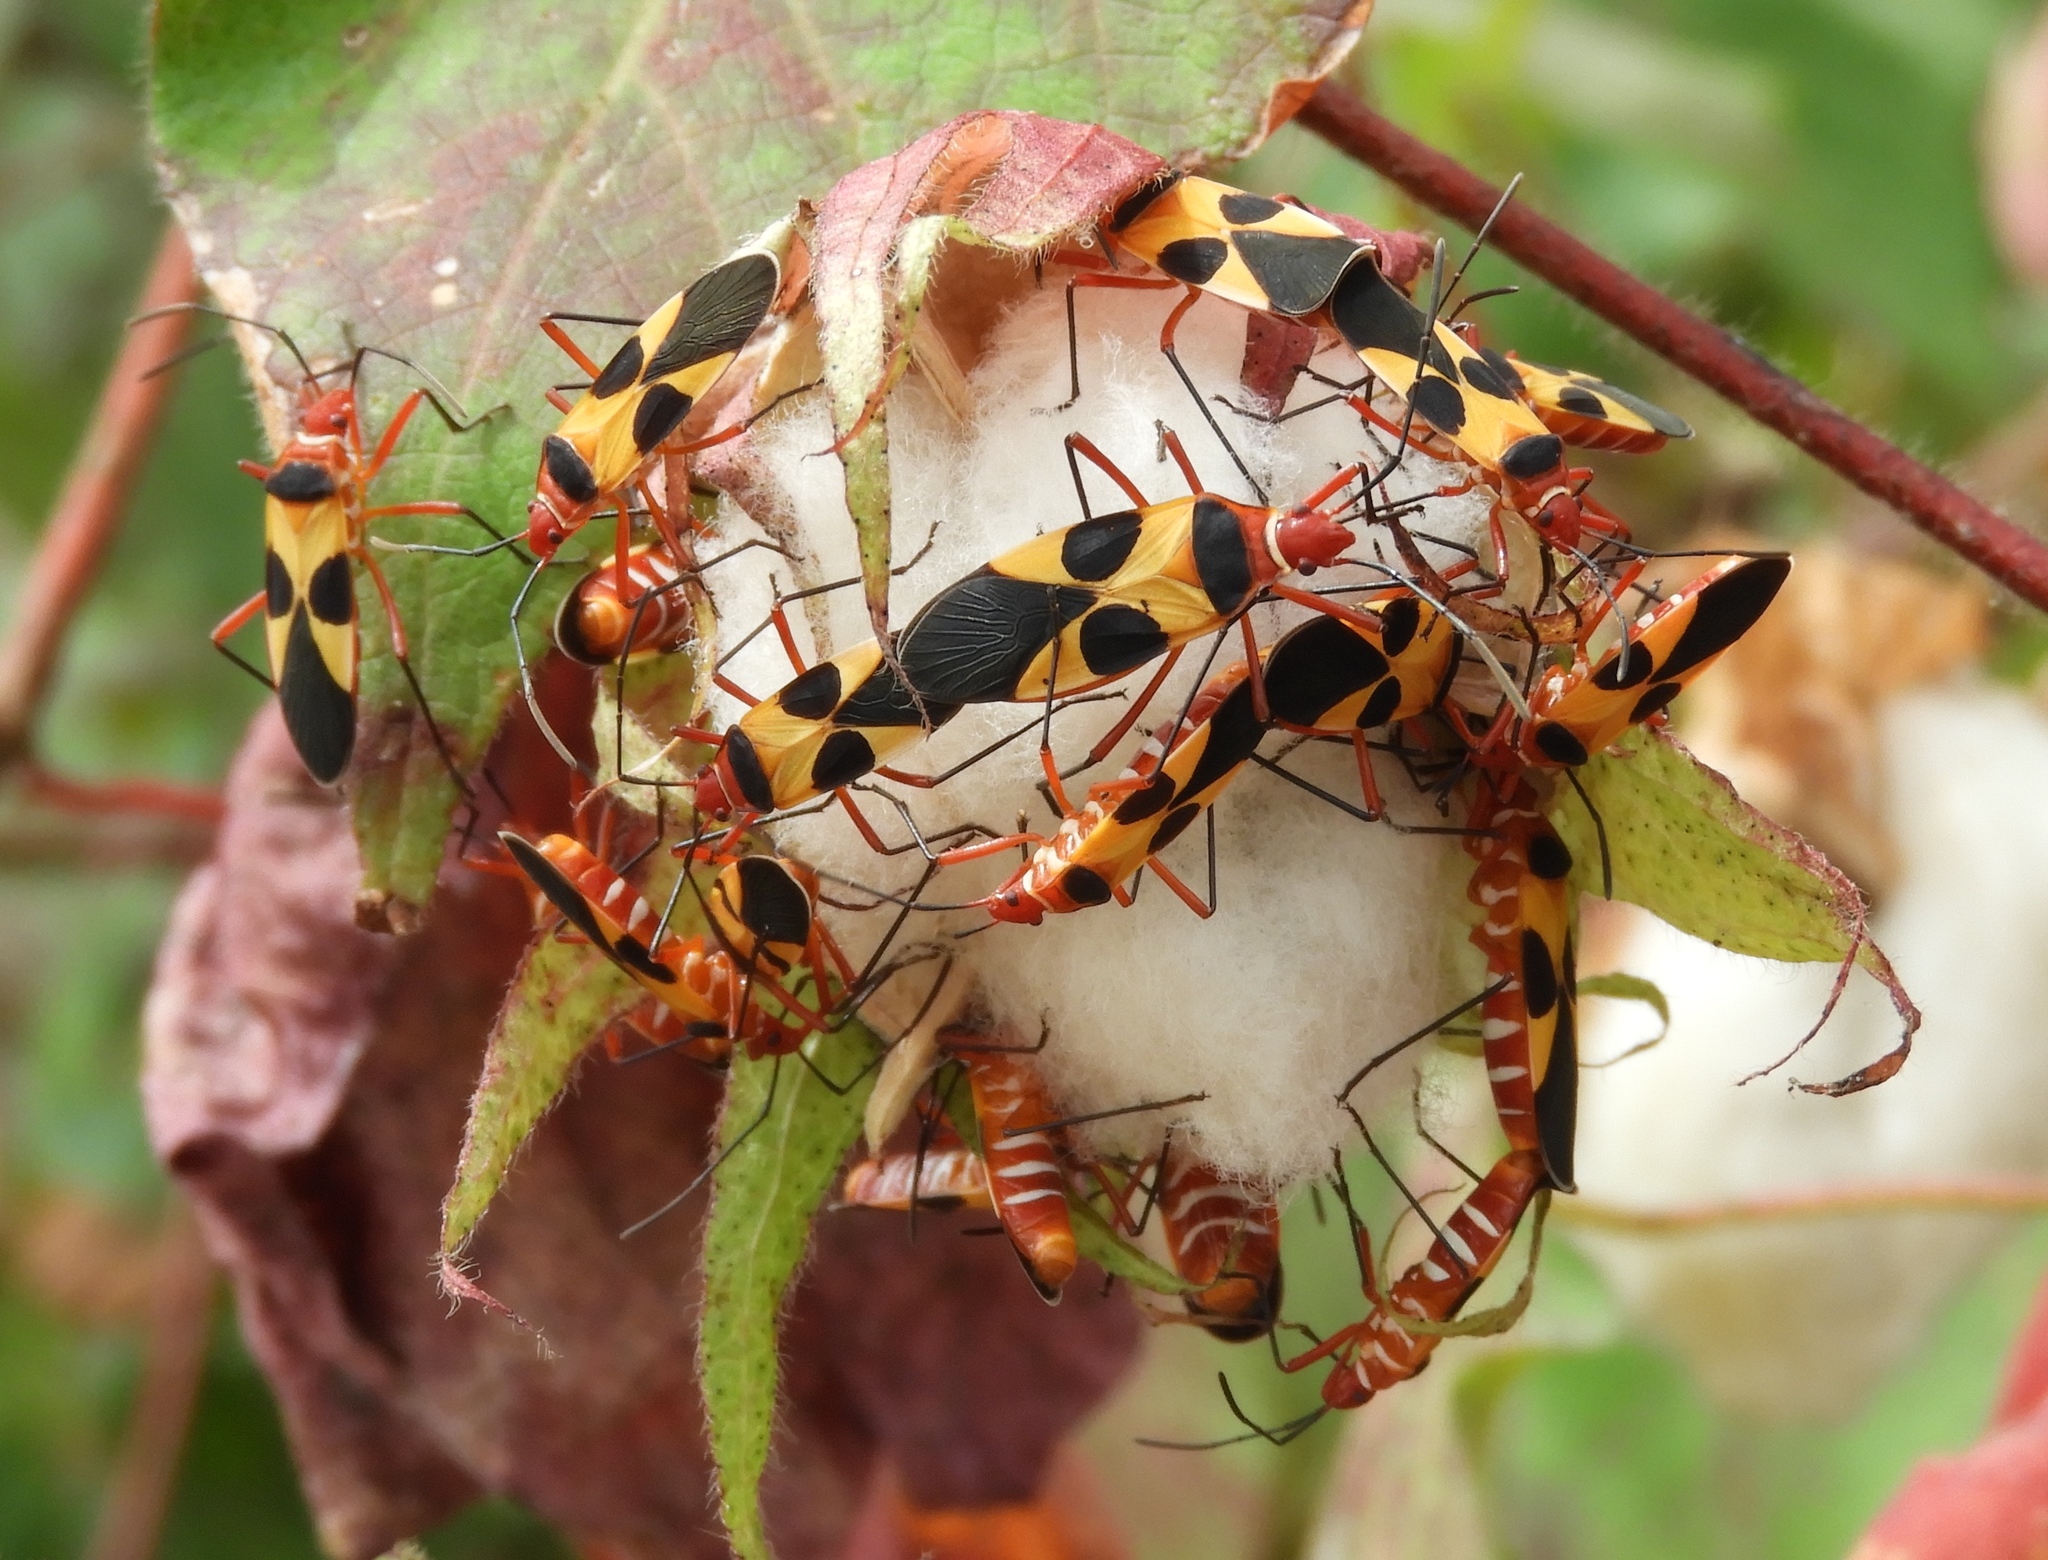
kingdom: Animalia
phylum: Arthropoda
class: Insecta
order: Hemiptera
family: Pyrrhocoridae
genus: Dysdercus
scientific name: Dysdercus
